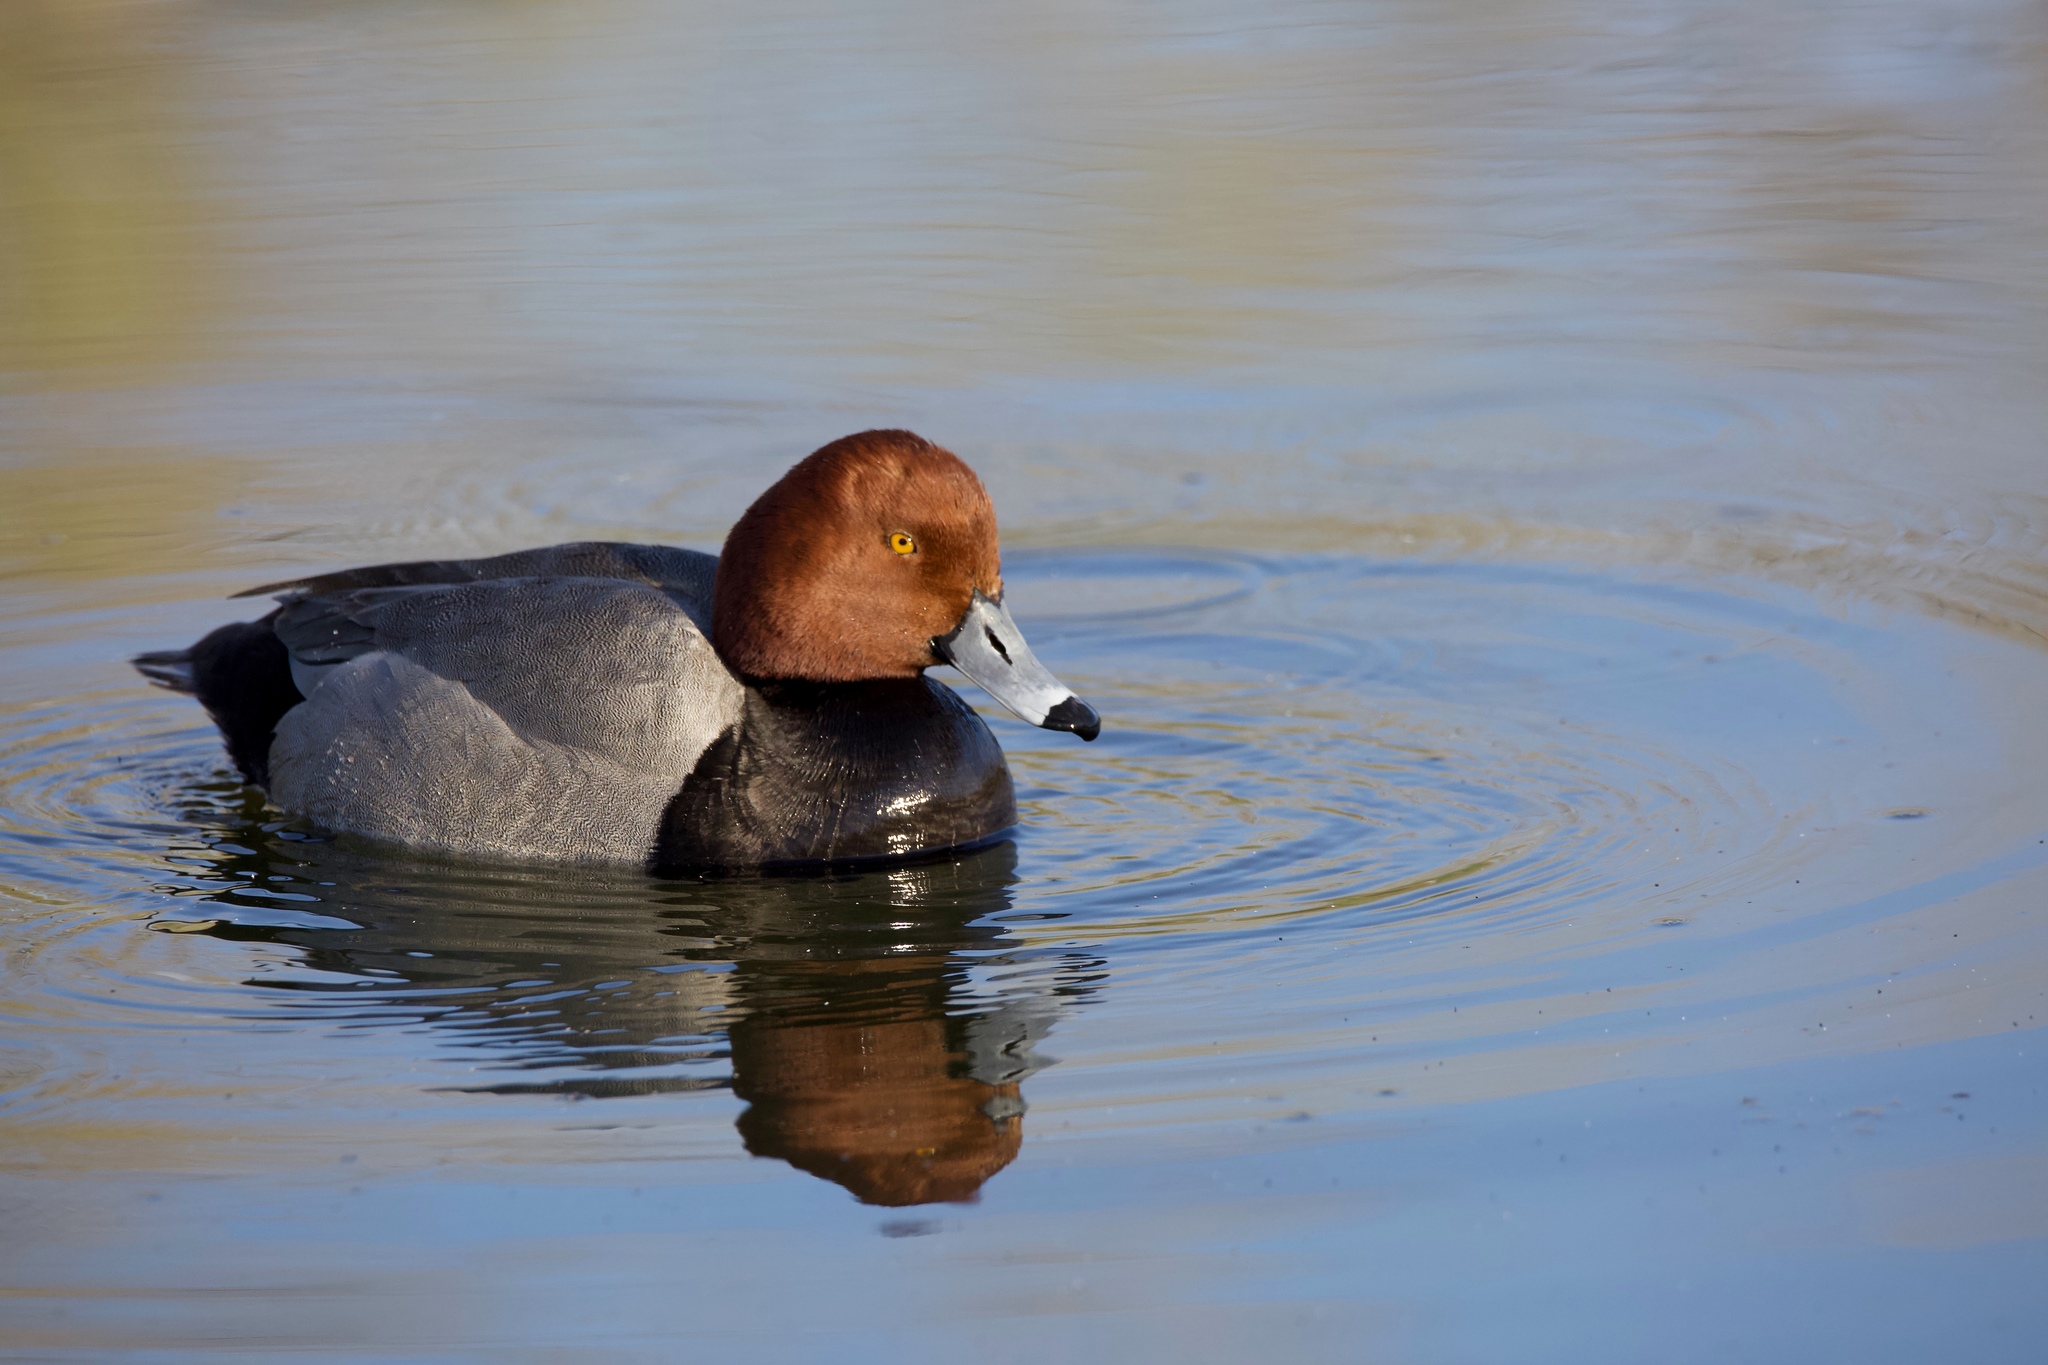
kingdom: Animalia
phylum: Chordata
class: Aves
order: Anseriformes
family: Anatidae
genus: Aythya
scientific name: Aythya americana
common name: Redhead
